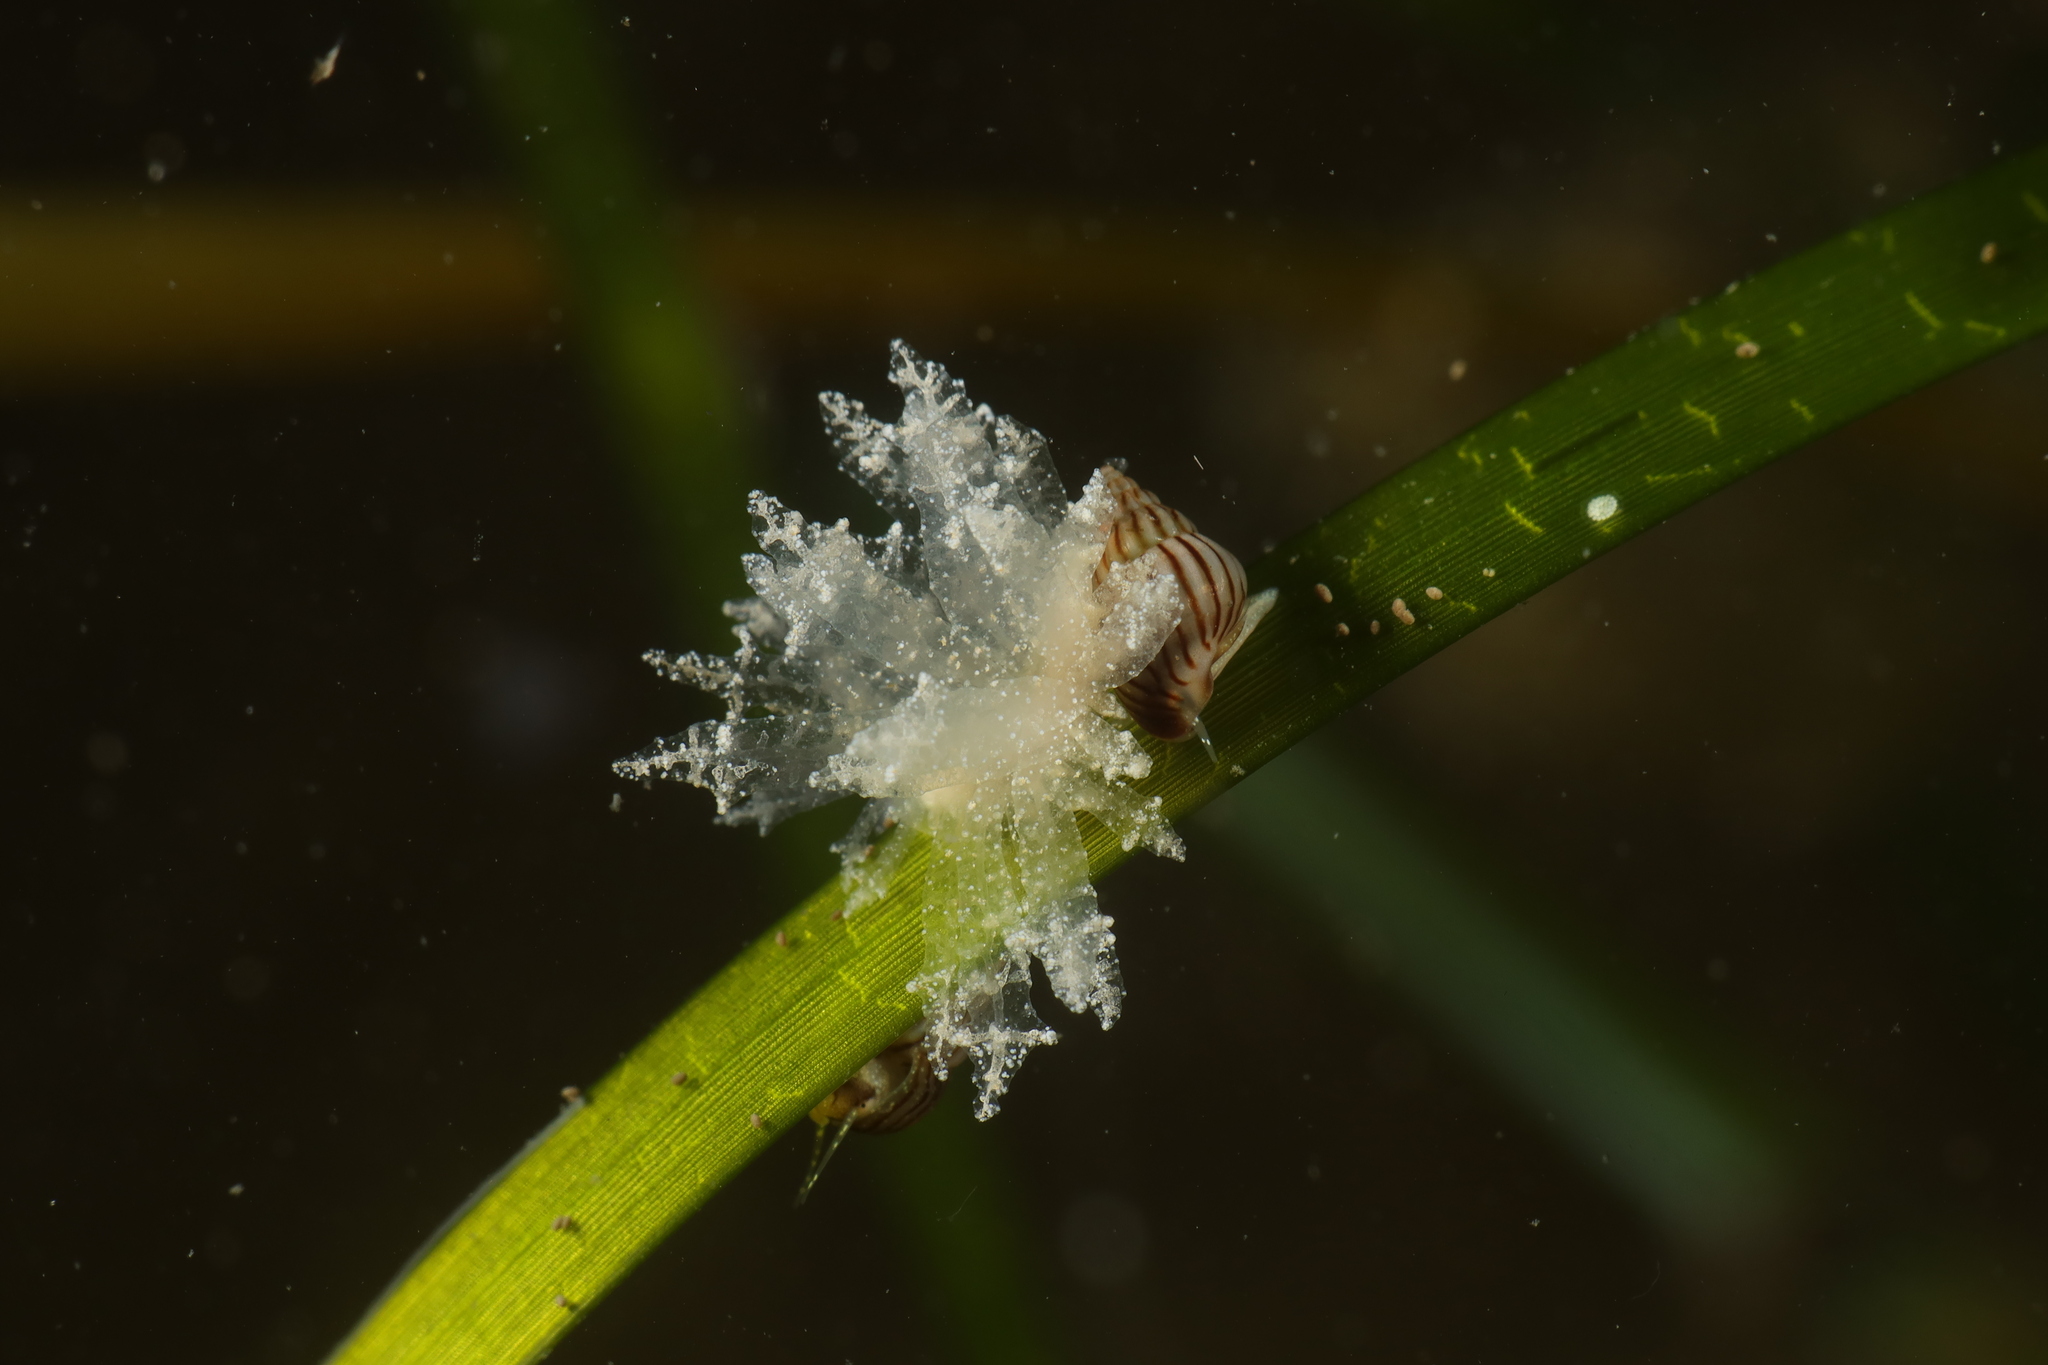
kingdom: Animalia
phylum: Mollusca
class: Gastropoda
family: Hermaeidae
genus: Hermaea
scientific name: Hermaea bifida
